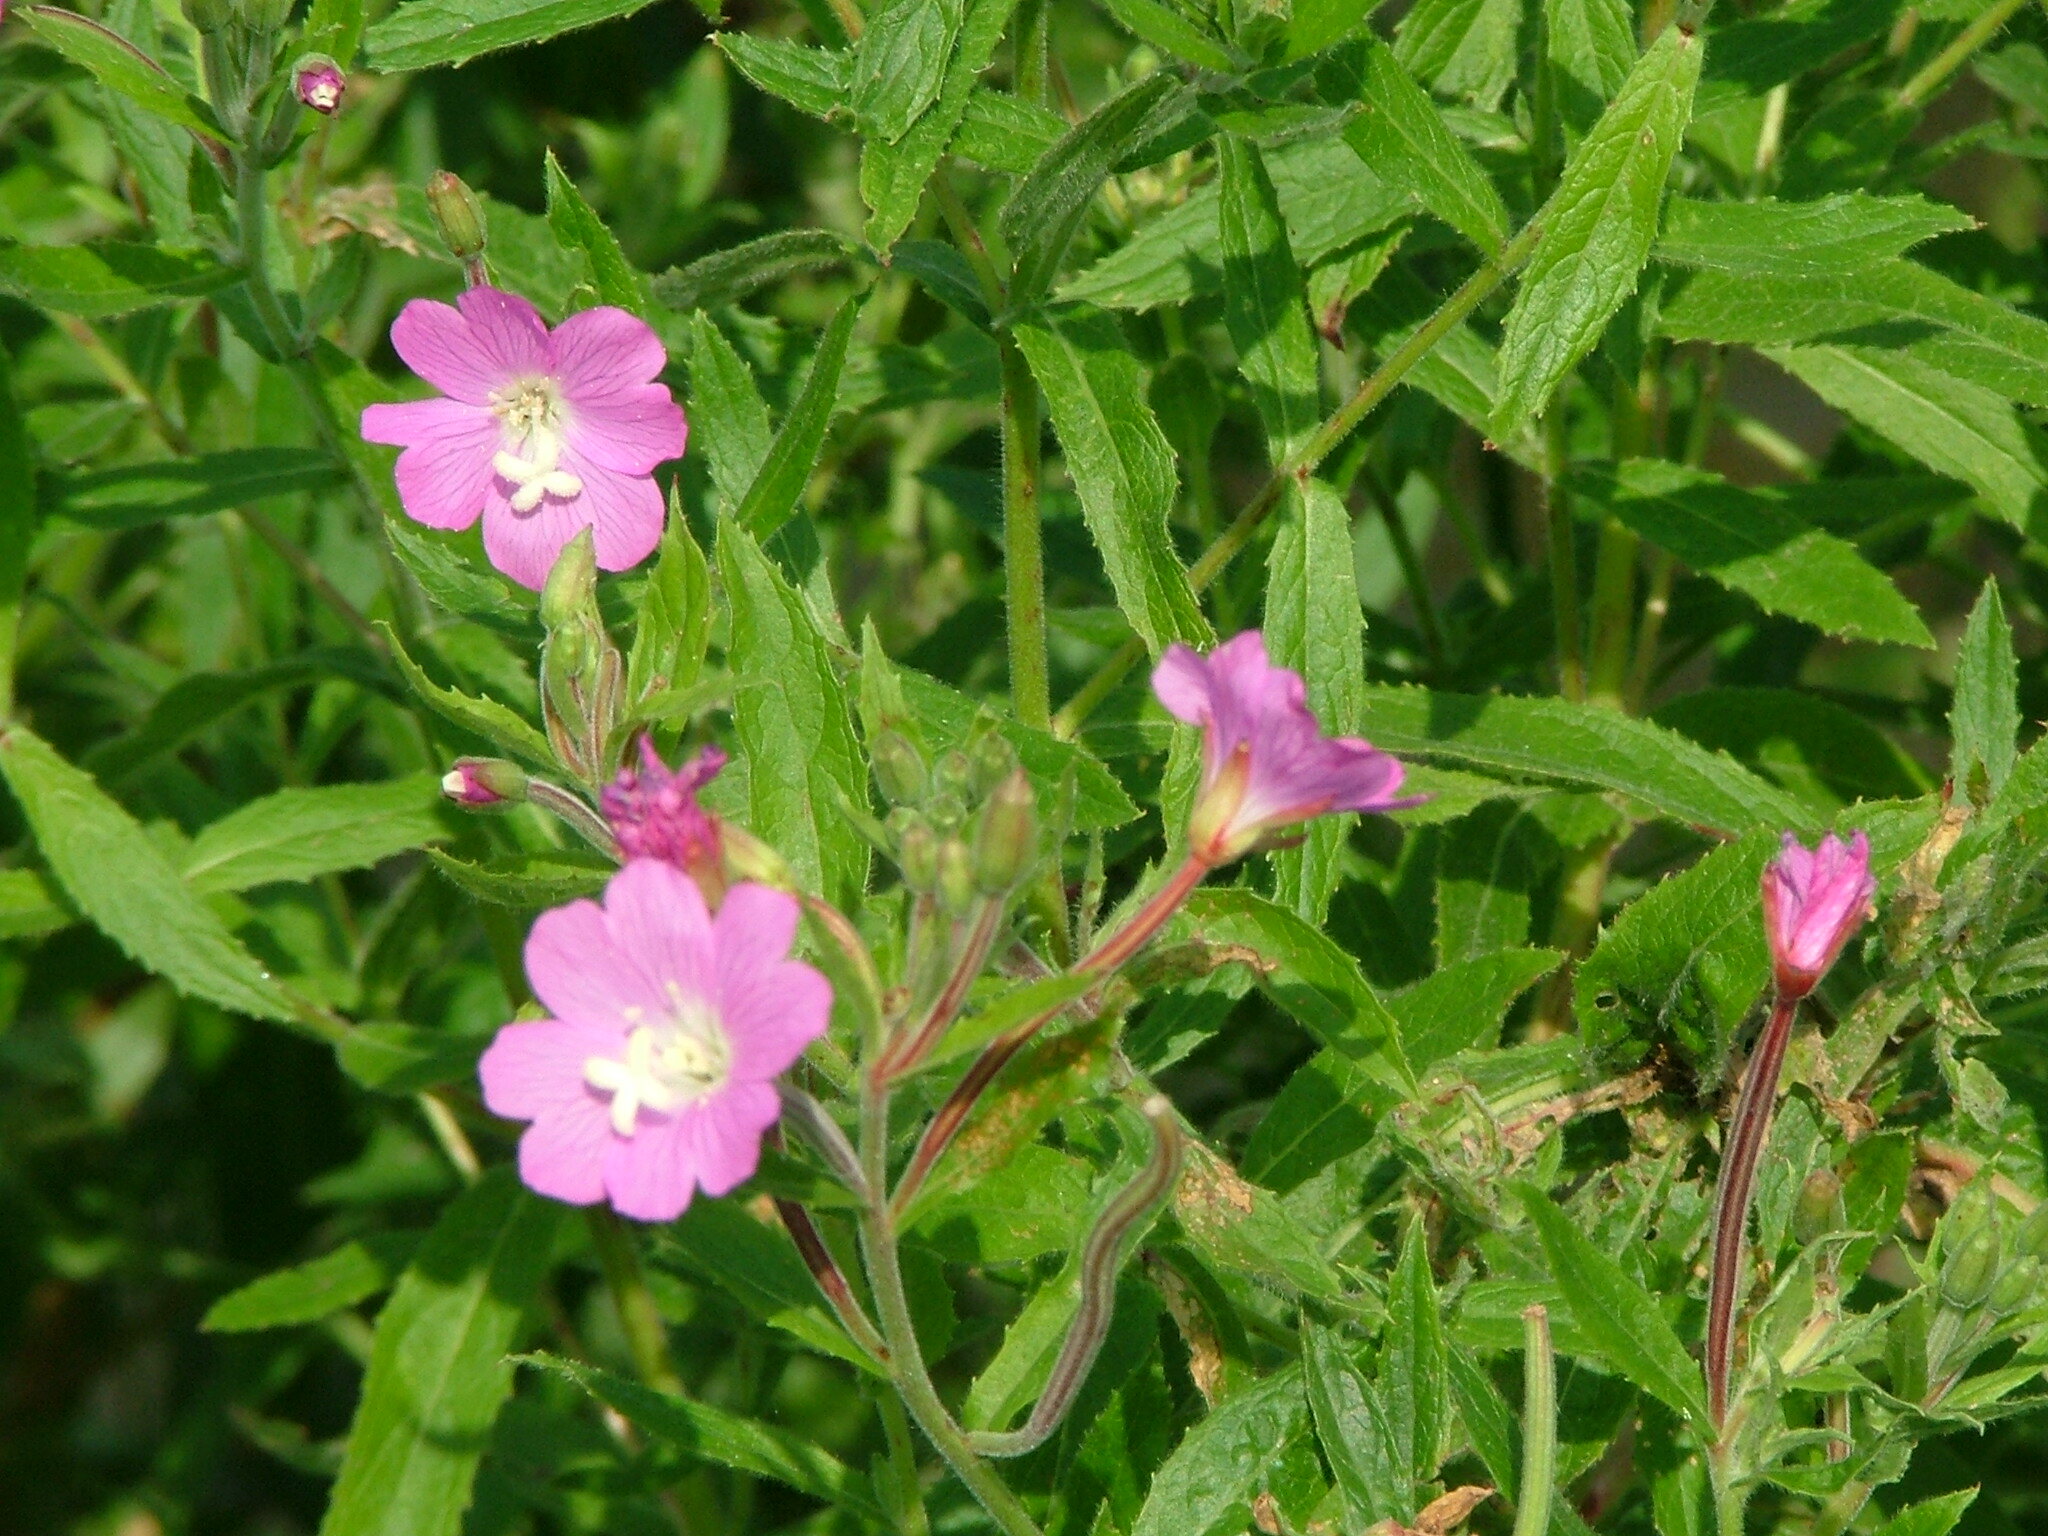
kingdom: Plantae
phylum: Tracheophyta
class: Magnoliopsida
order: Myrtales
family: Onagraceae
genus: Epilobium
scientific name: Epilobium hirsutum
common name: Great willowherb
